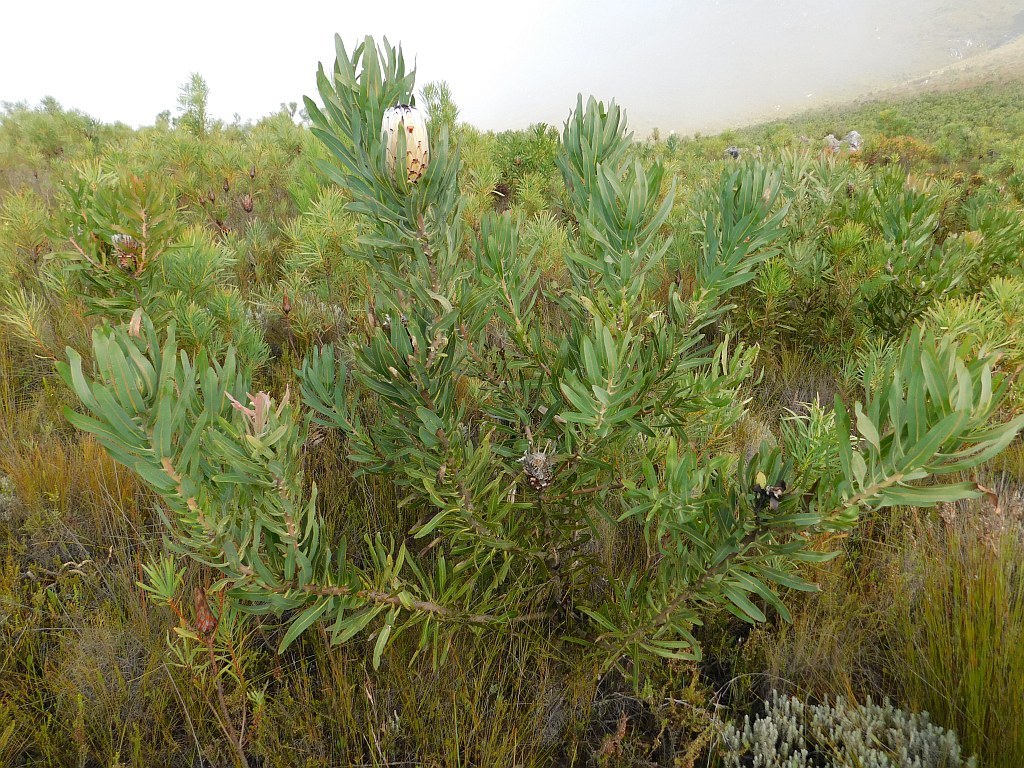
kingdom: Plantae
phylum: Tracheophyta
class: Magnoliopsida
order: Proteales
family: Proteaceae
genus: Protea
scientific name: Protea neriifolia
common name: Blue sugarbush
